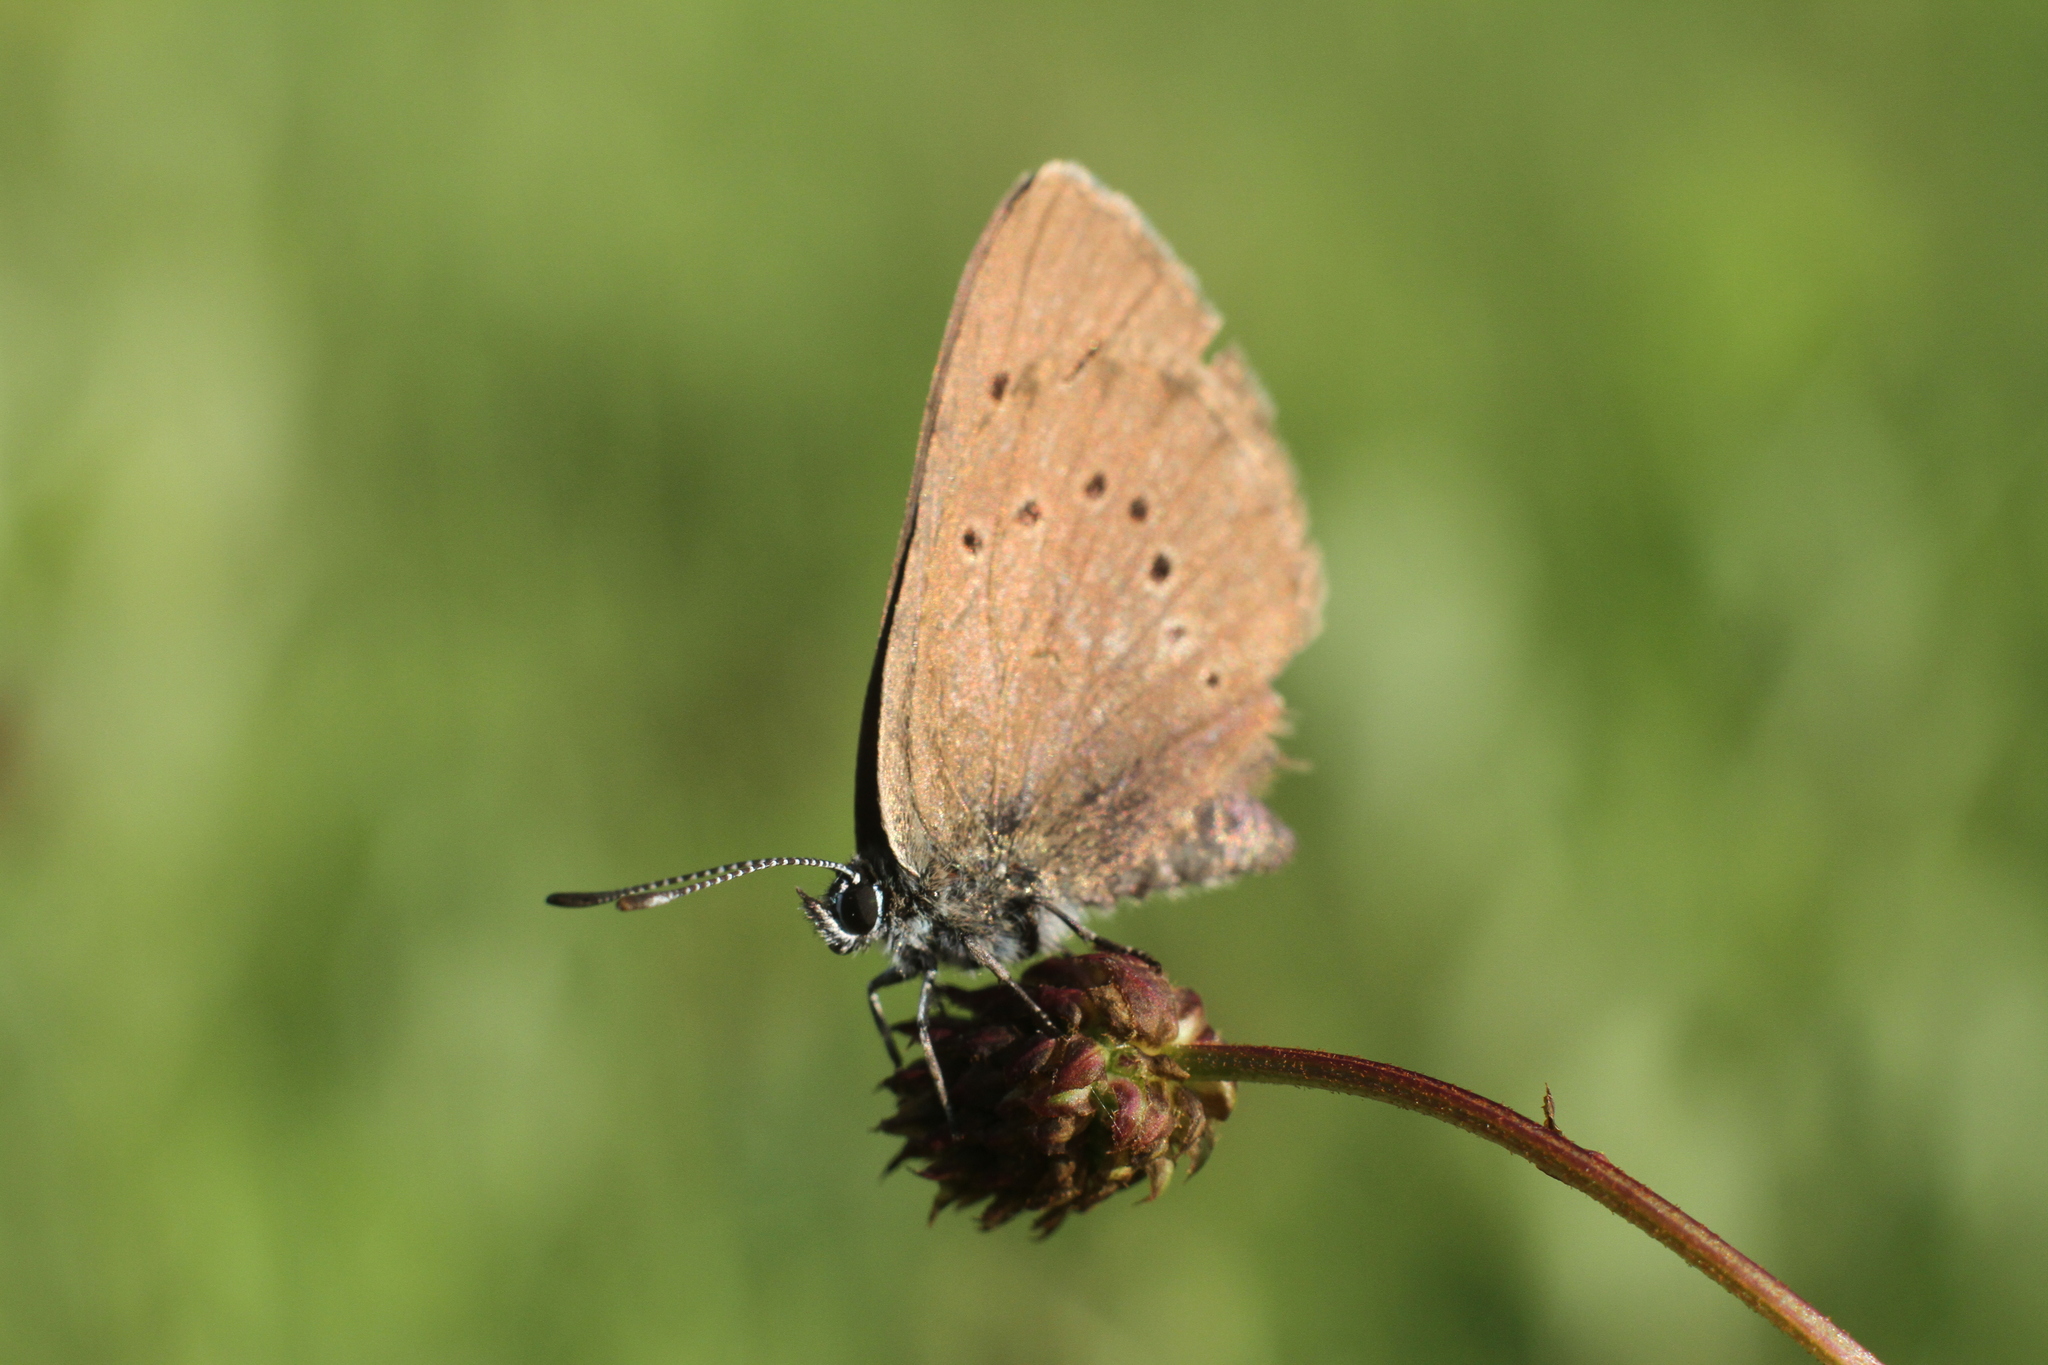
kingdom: Animalia
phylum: Arthropoda
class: Insecta
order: Lepidoptera
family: Lycaenidae
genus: Maculinea
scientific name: Maculinea nausithous
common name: Dusky large blue
